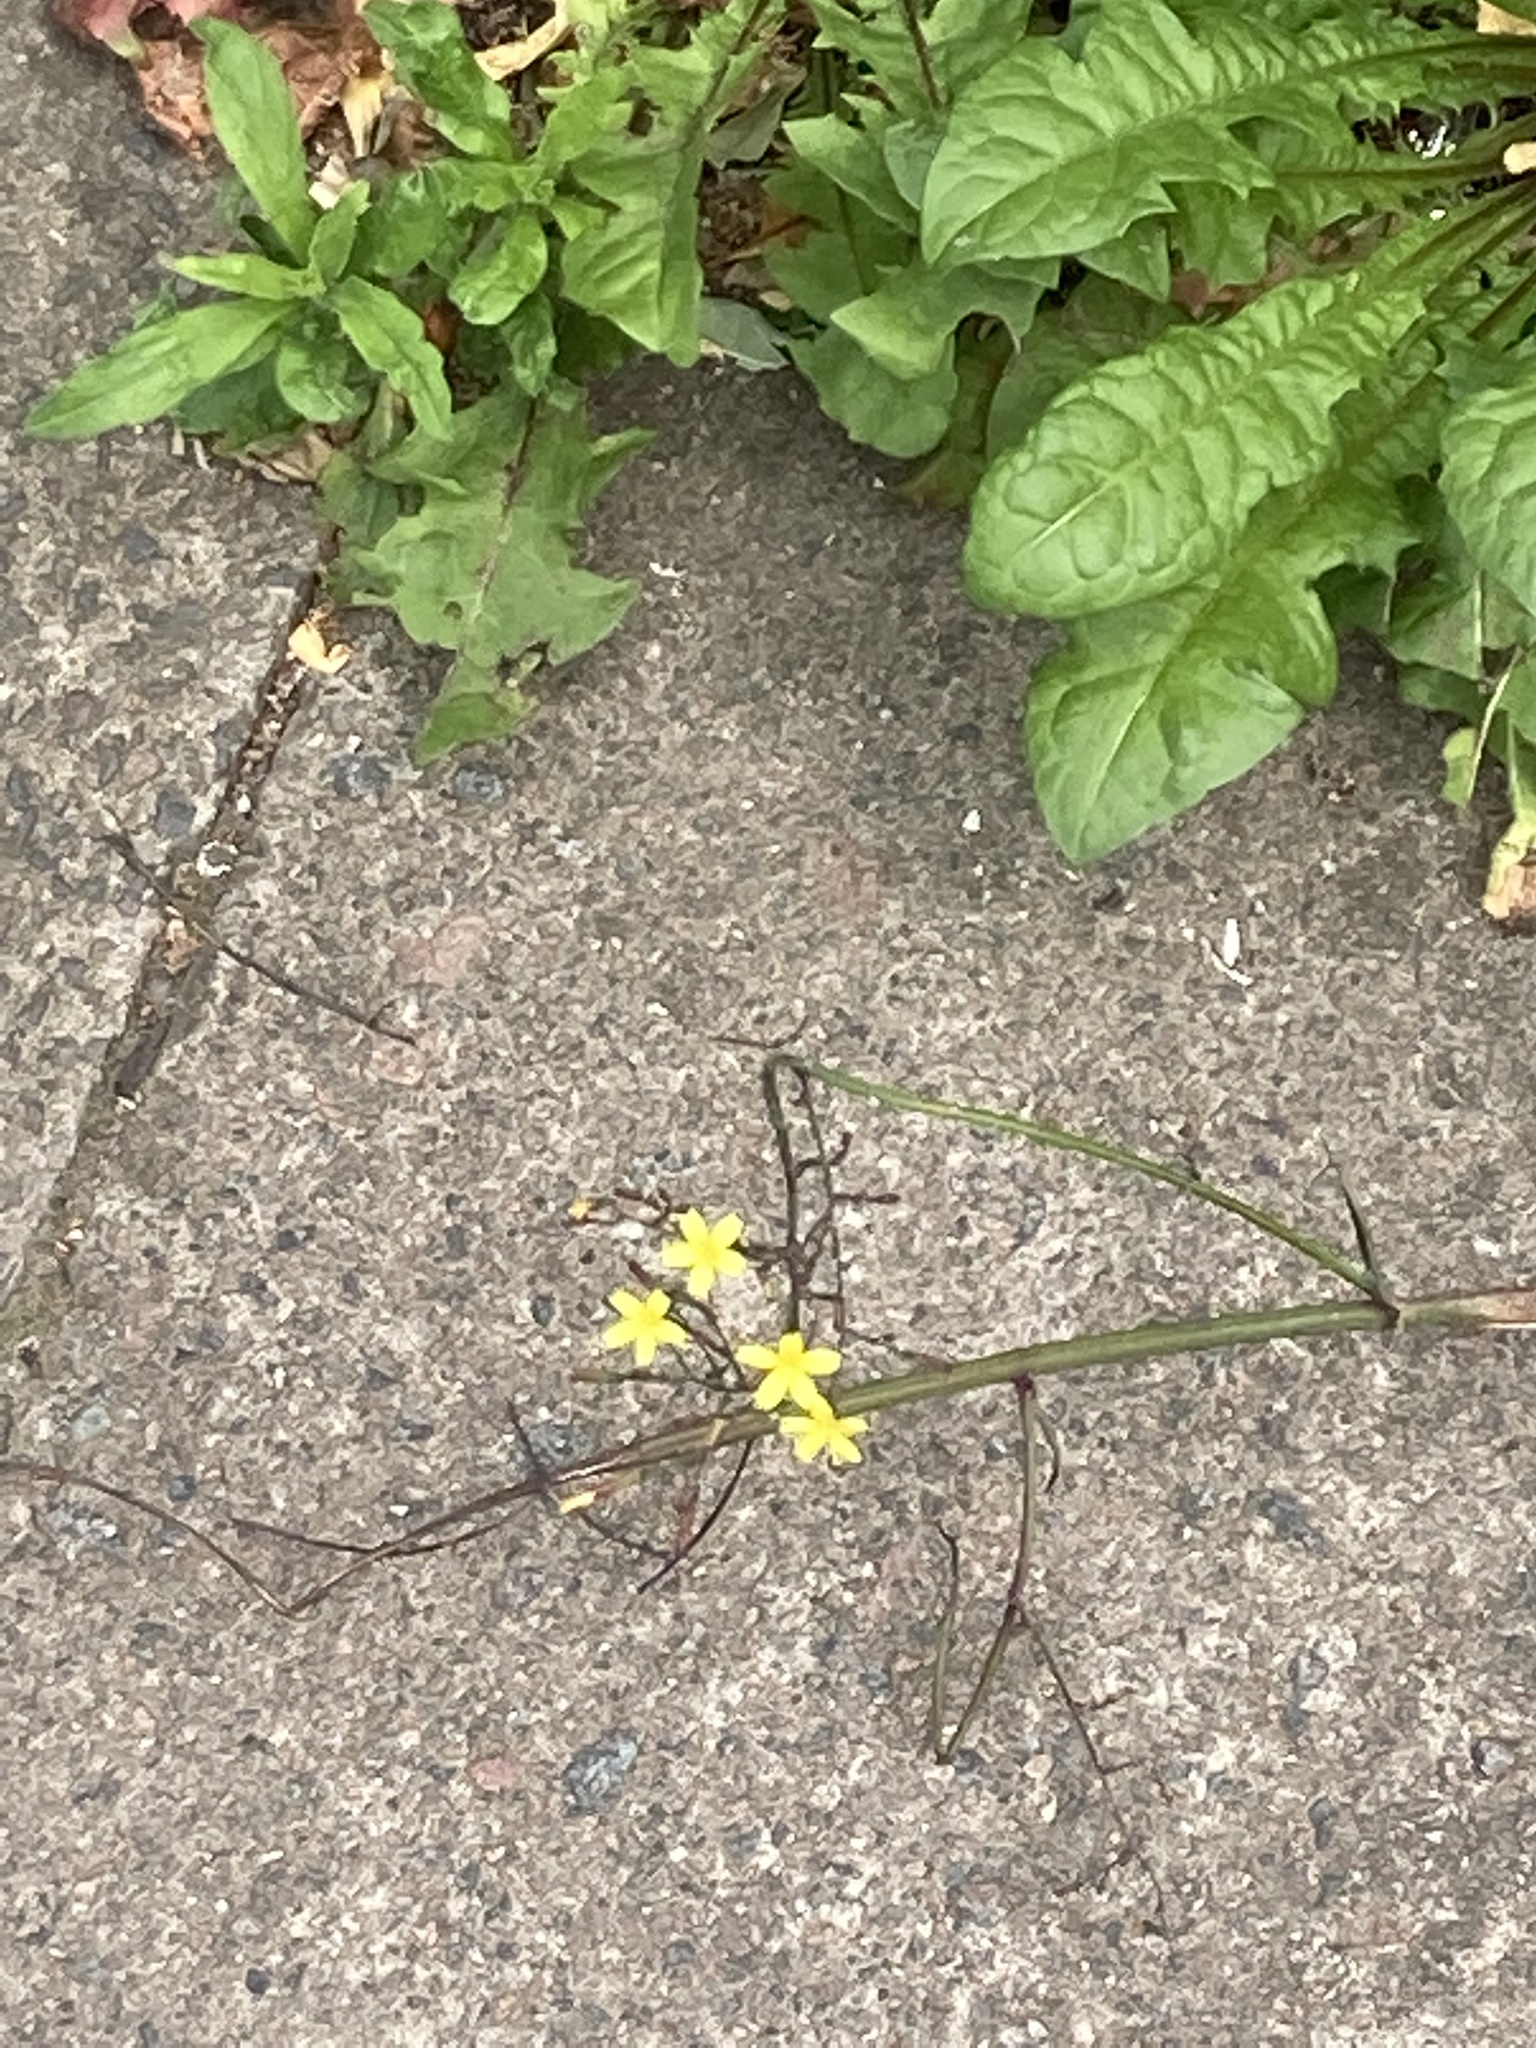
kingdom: Plantae
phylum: Tracheophyta
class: Magnoliopsida
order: Asterales
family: Asteraceae
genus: Mycelis
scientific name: Mycelis muralis
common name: Wall lettuce
